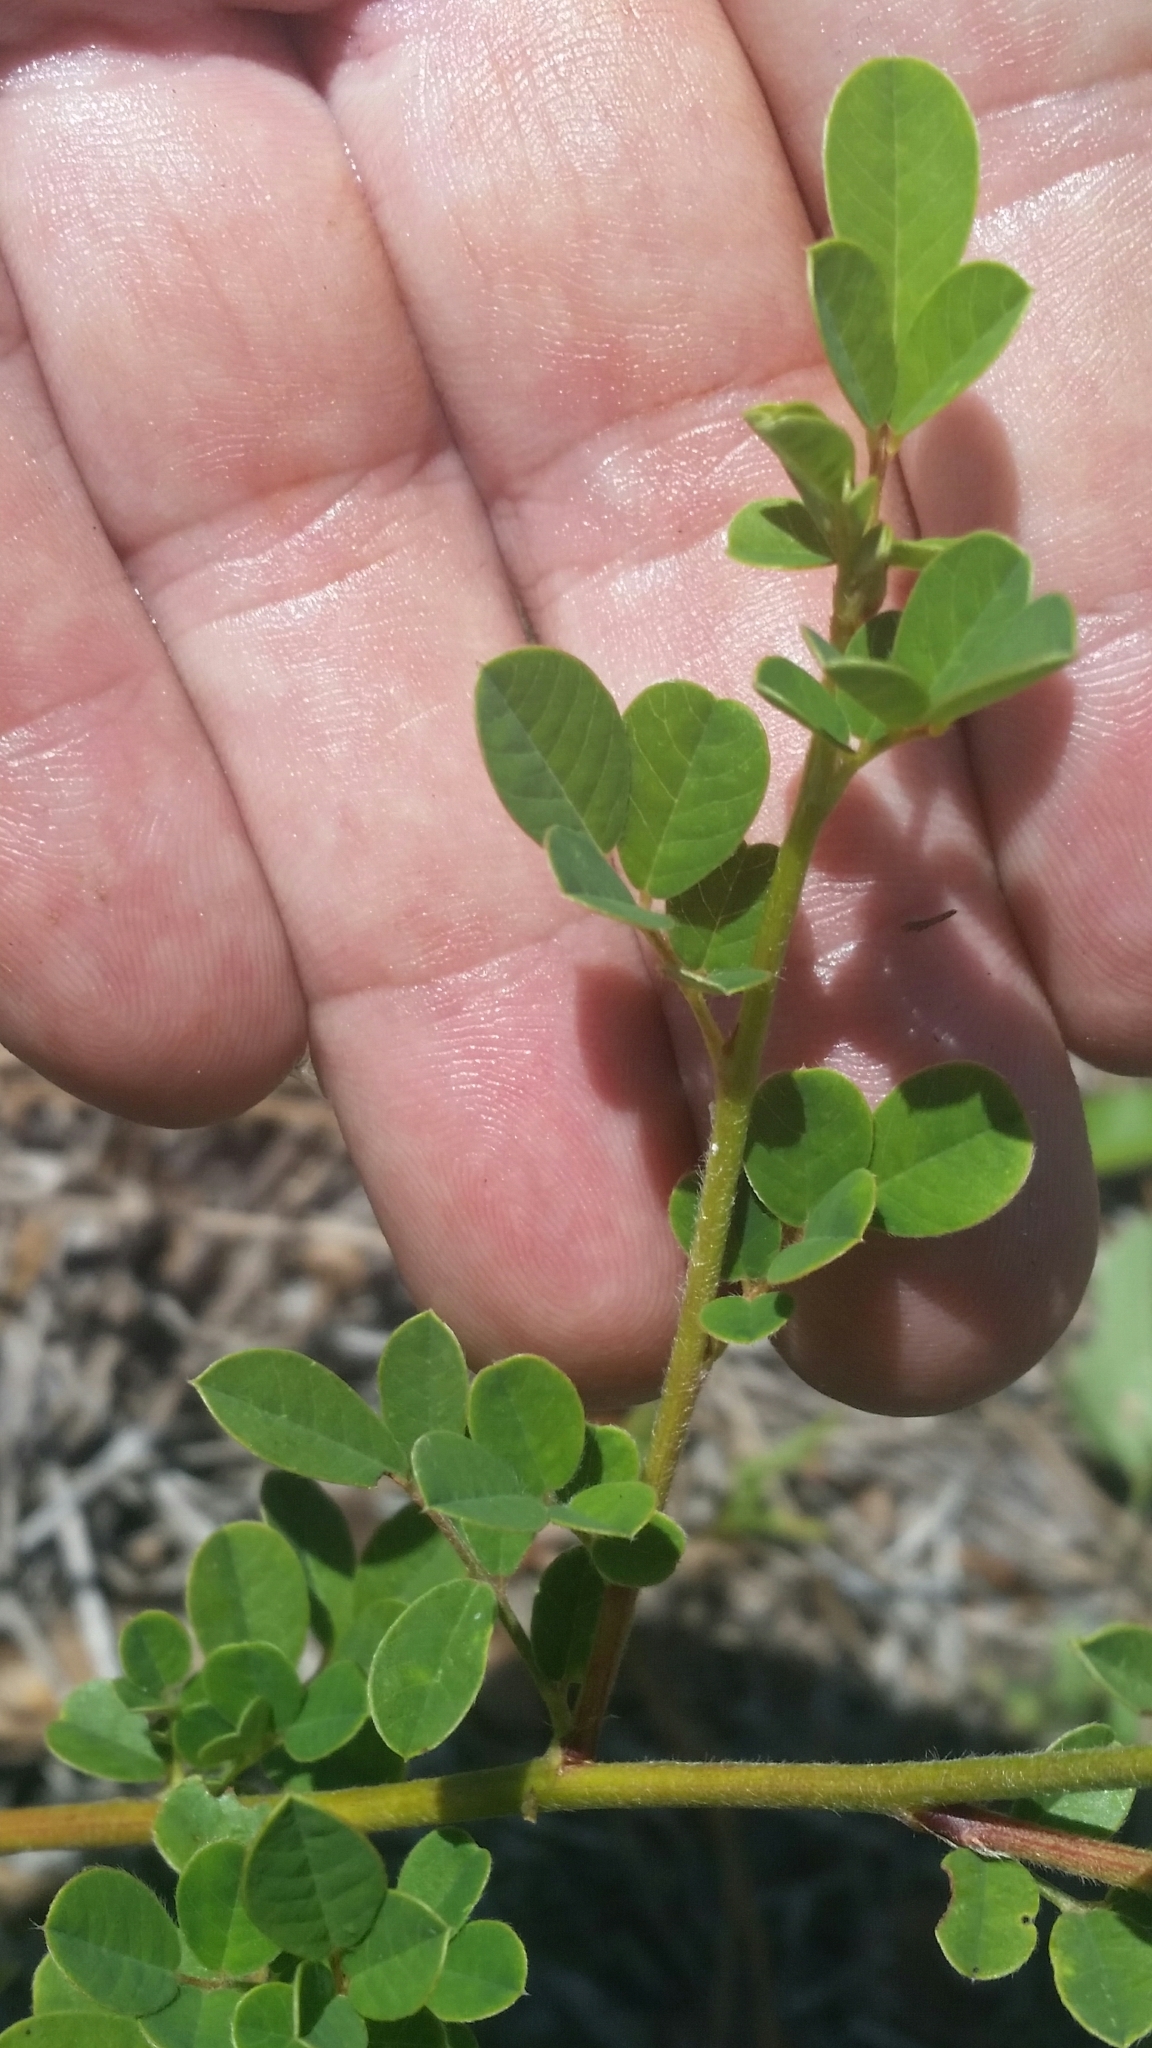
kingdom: Plantae
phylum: Tracheophyta
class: Magnoliopsida
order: Fabales
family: Fabaceae
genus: Chapmannia
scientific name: Chapmannia floridana
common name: Alicia
